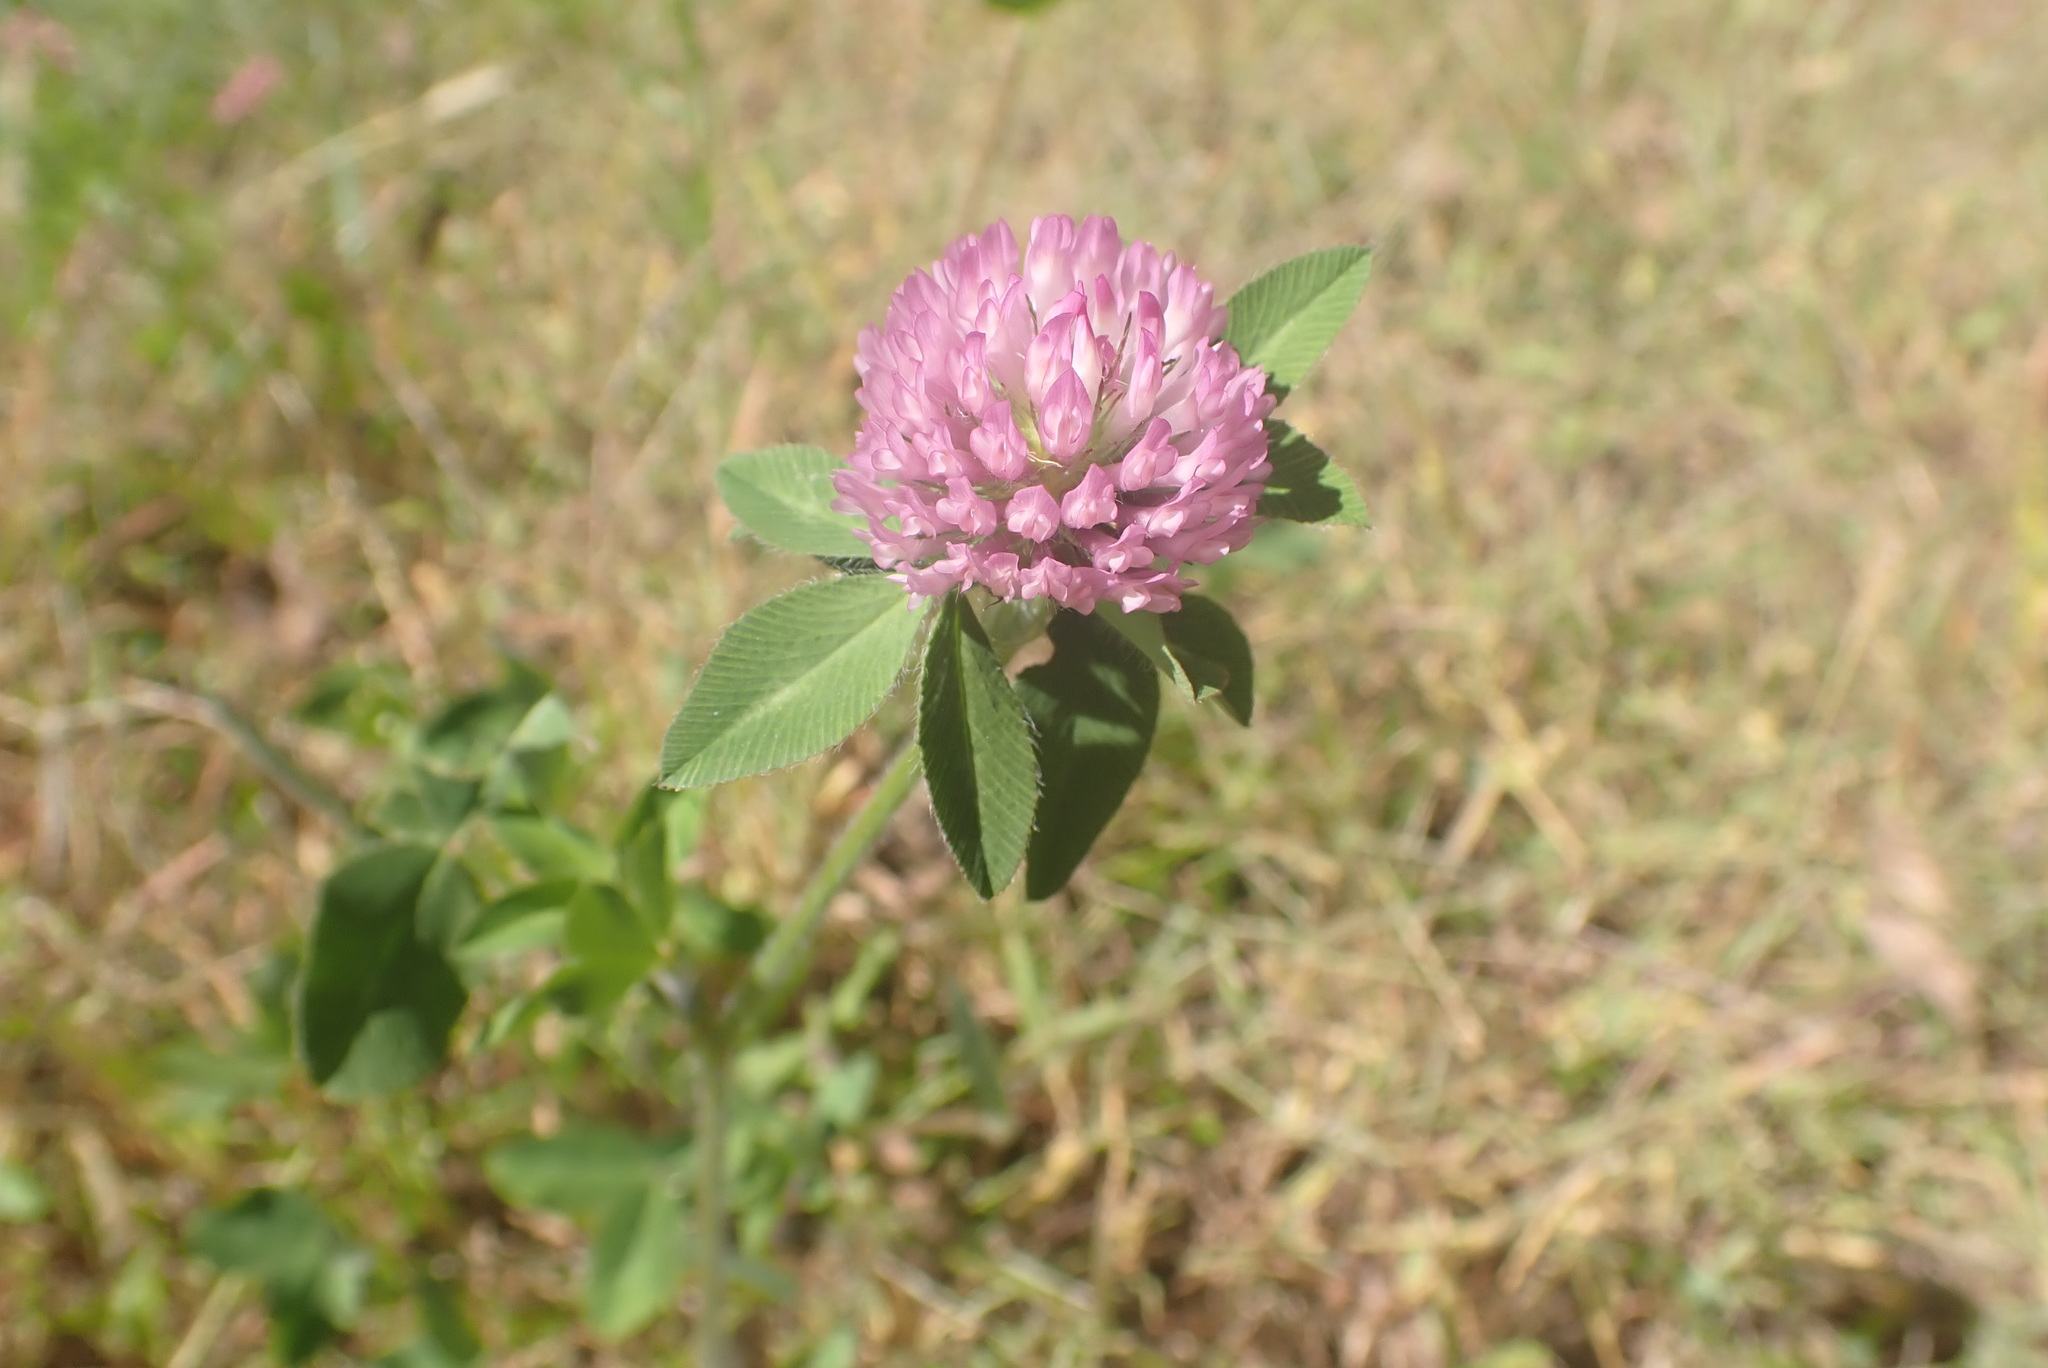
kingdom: Plantae
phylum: Tracheophyta
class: Magnoliopsida
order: Fabales
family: Fabaceae
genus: Trifolium
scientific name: Trifolium pratense
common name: Red clover
